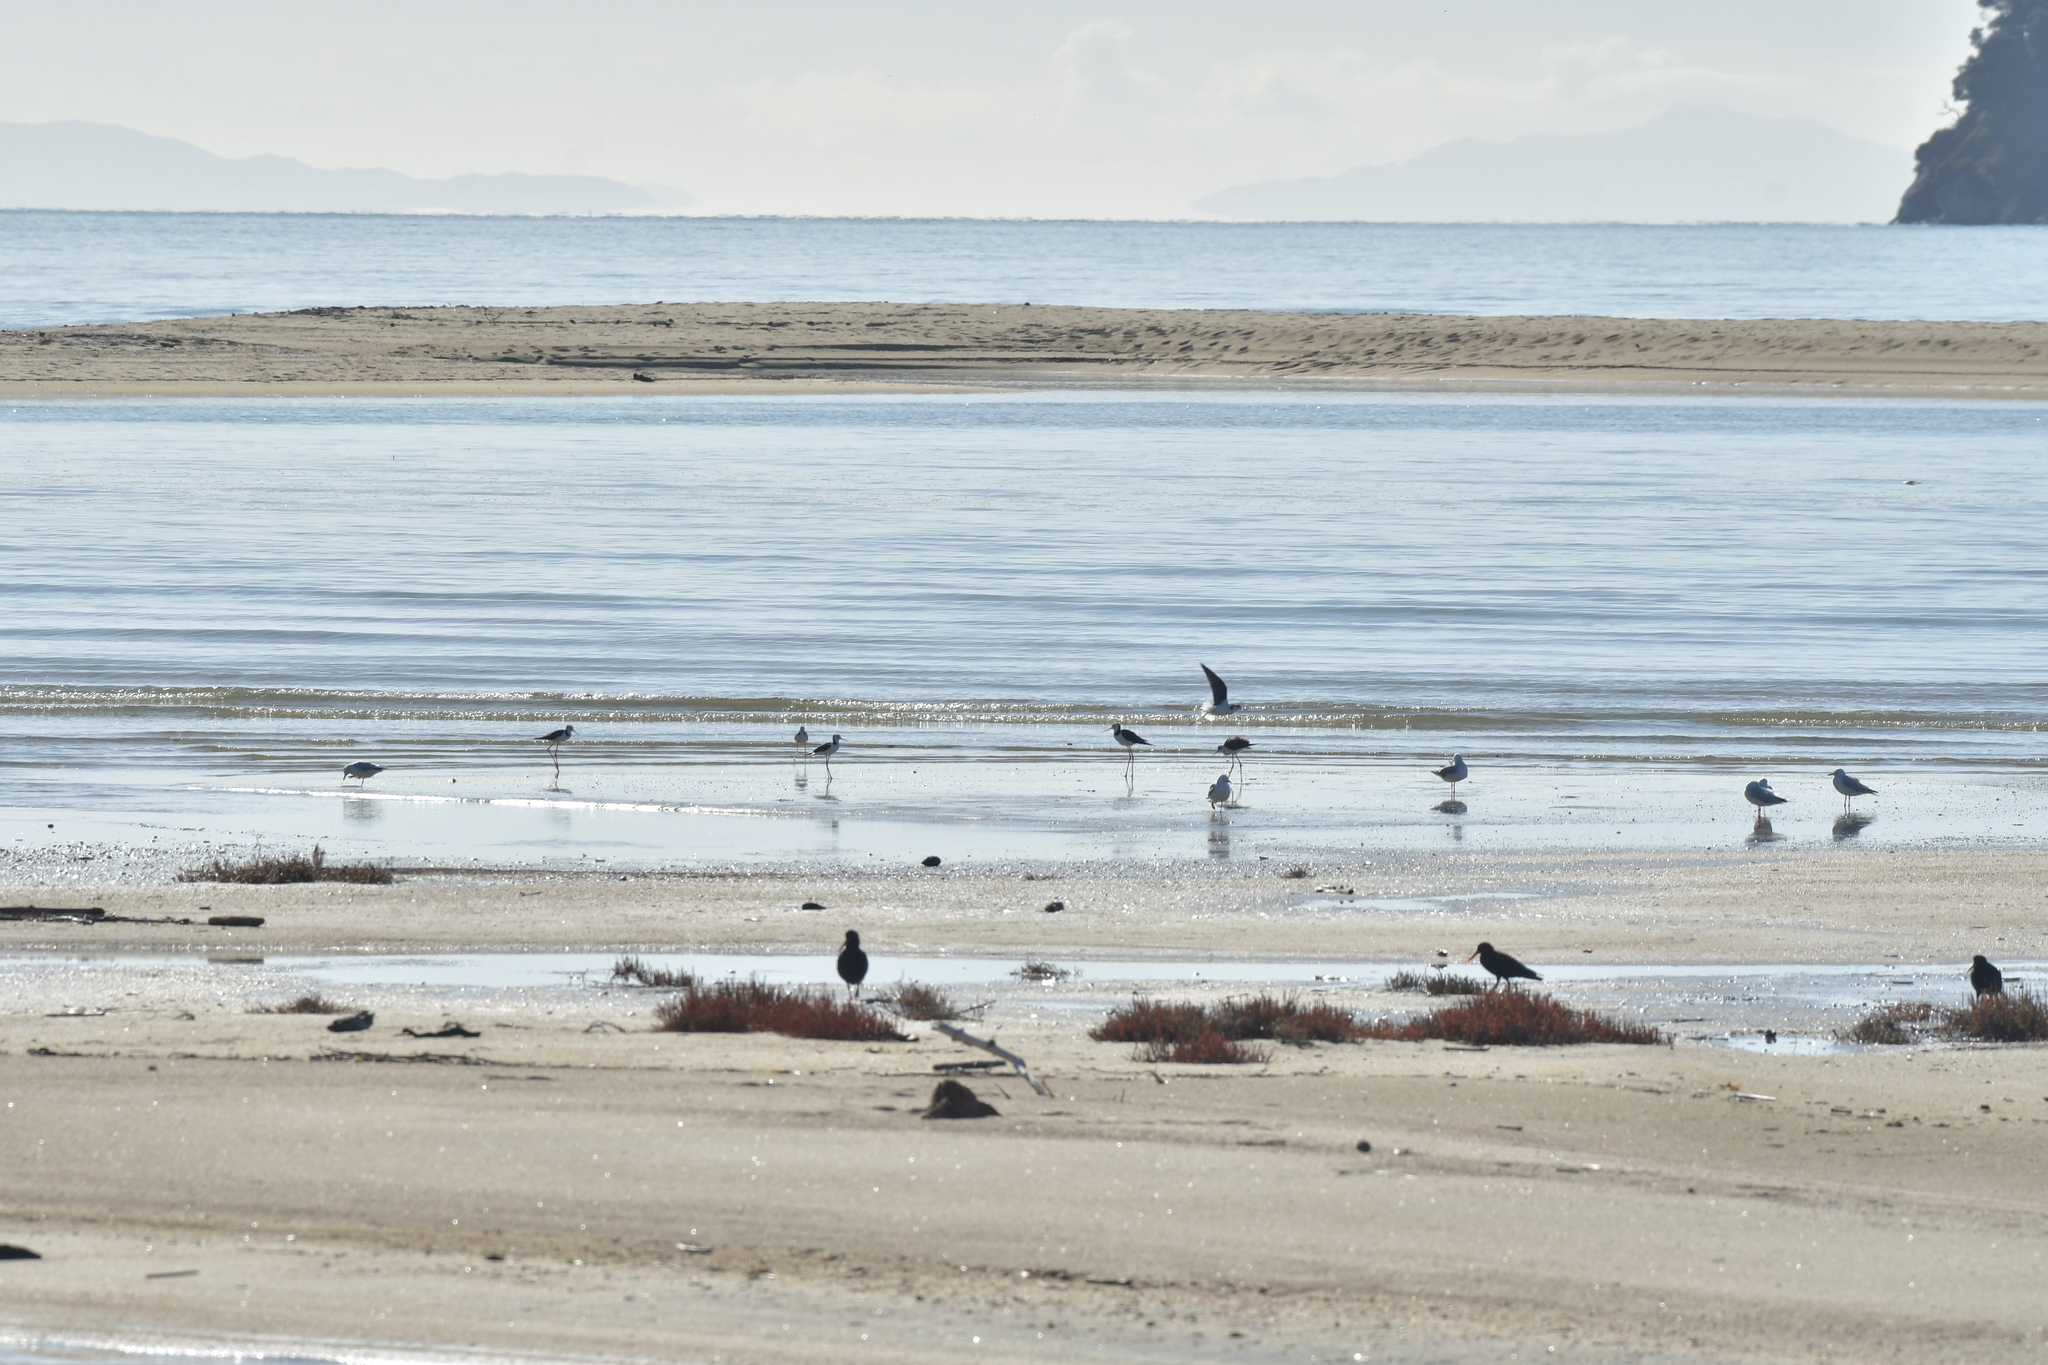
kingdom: Animalia
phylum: Chordata
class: Aves
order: Charadriiformes
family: Recurvirostridae
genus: Himantopus
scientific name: Himantopus leucocephalus
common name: White-headed stilt
